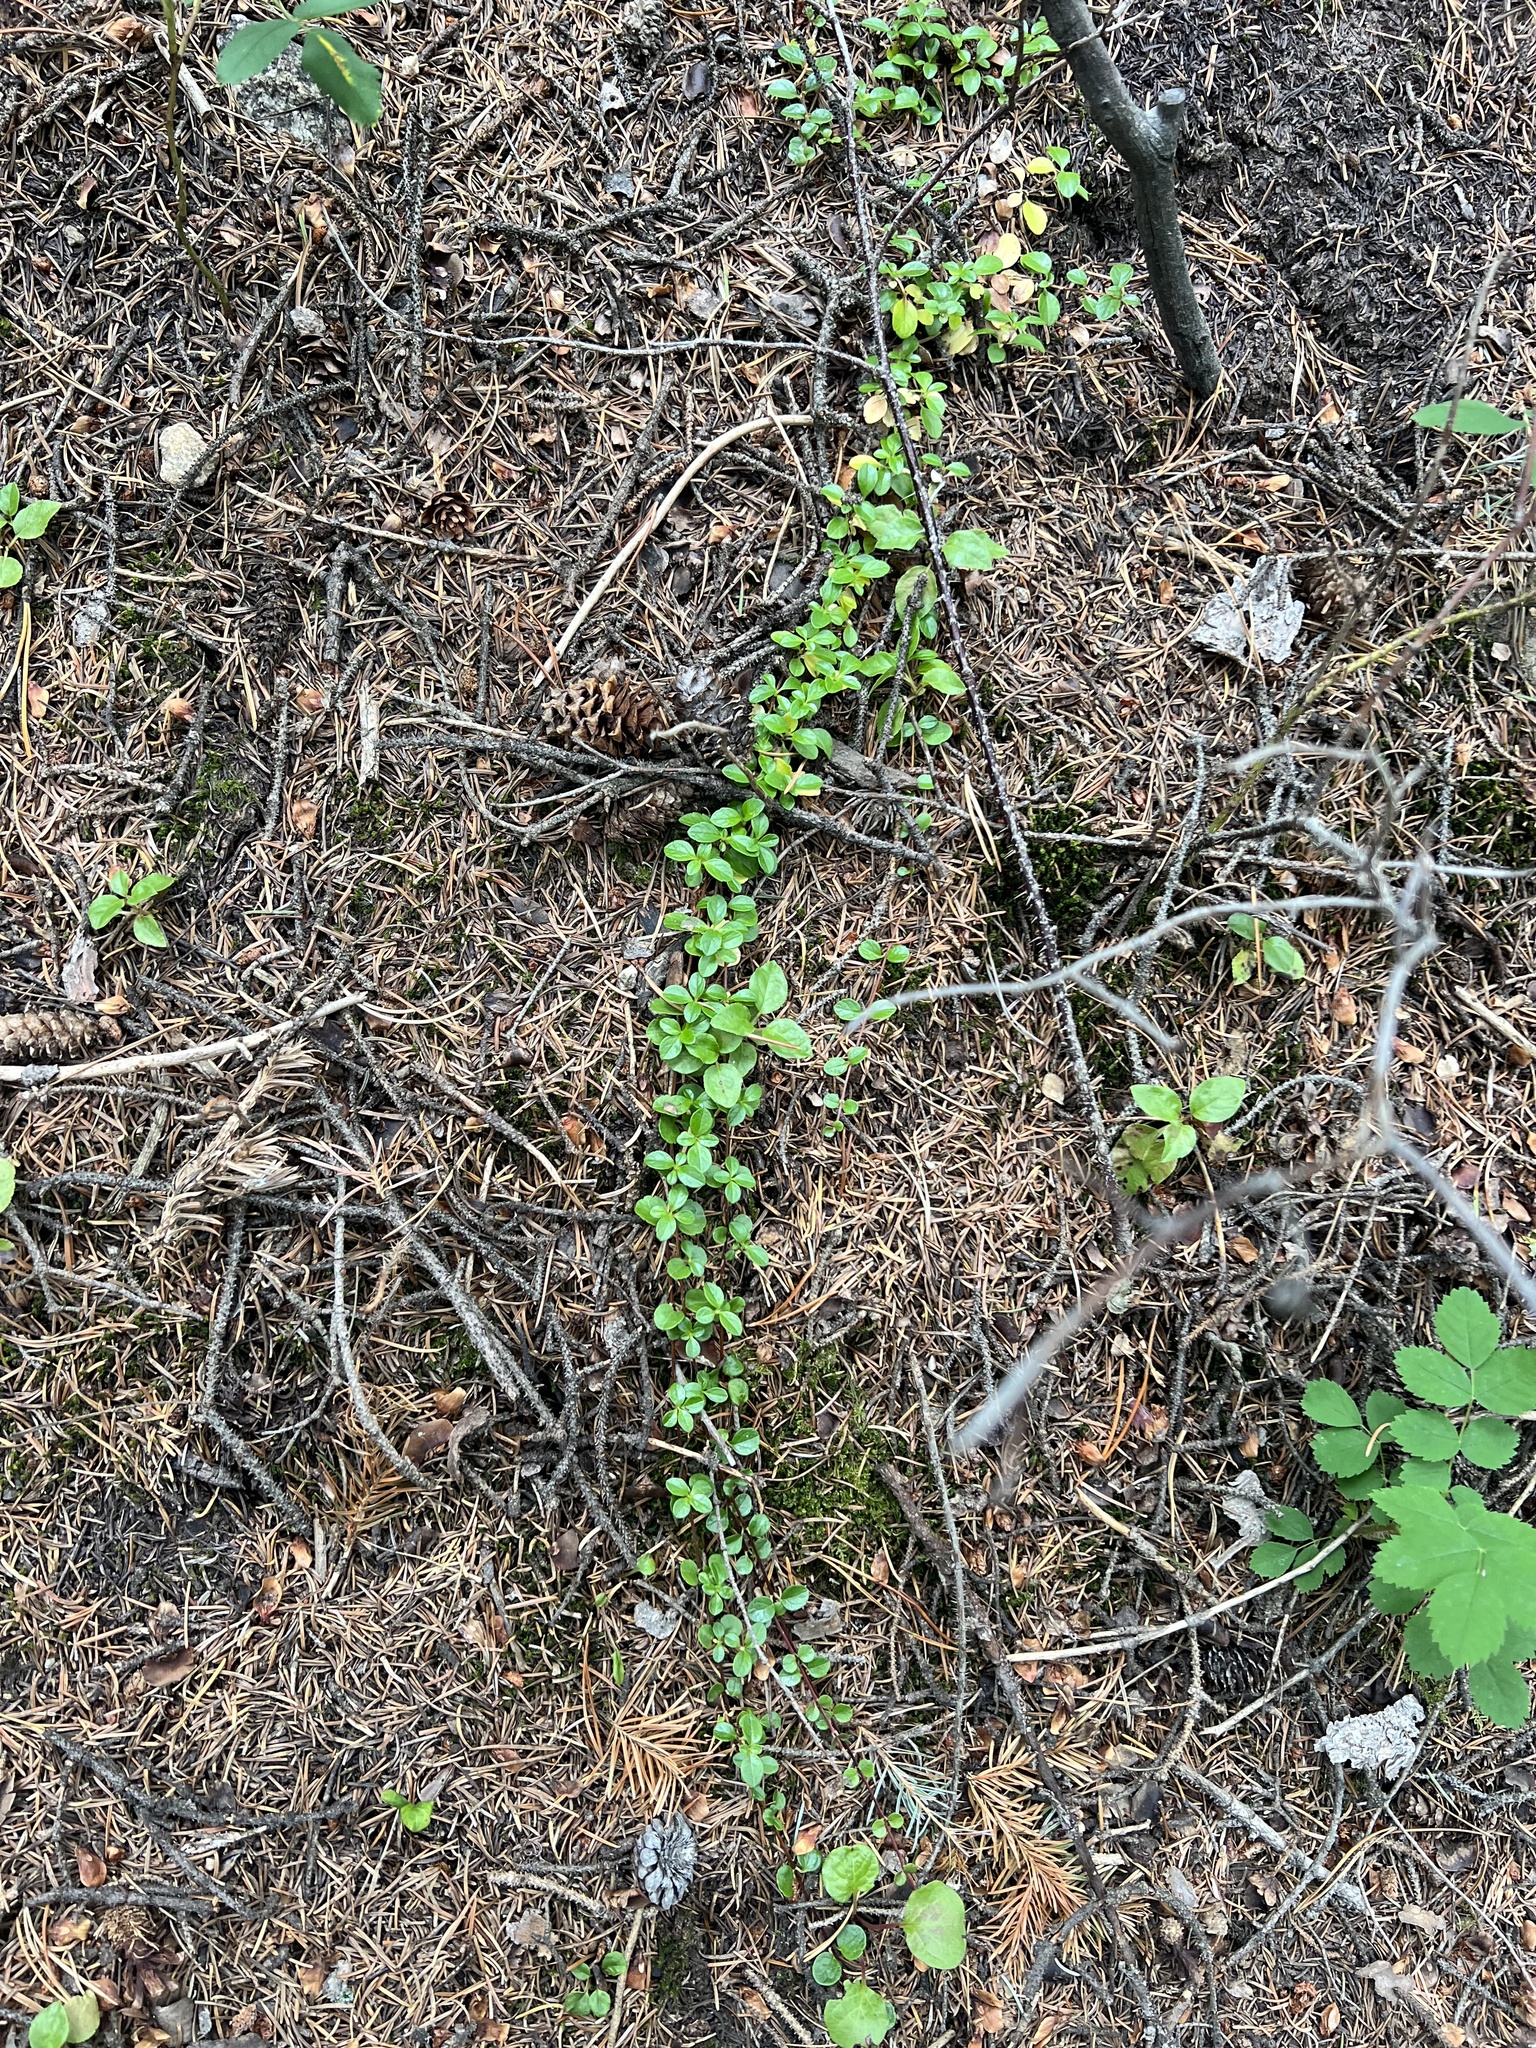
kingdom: Plantae
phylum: Tracheophyta
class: Magnoliopsida
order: Dipsacales
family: Caprifoliaceae
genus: Linnaea
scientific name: Linnaea borealis
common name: Twinflower
